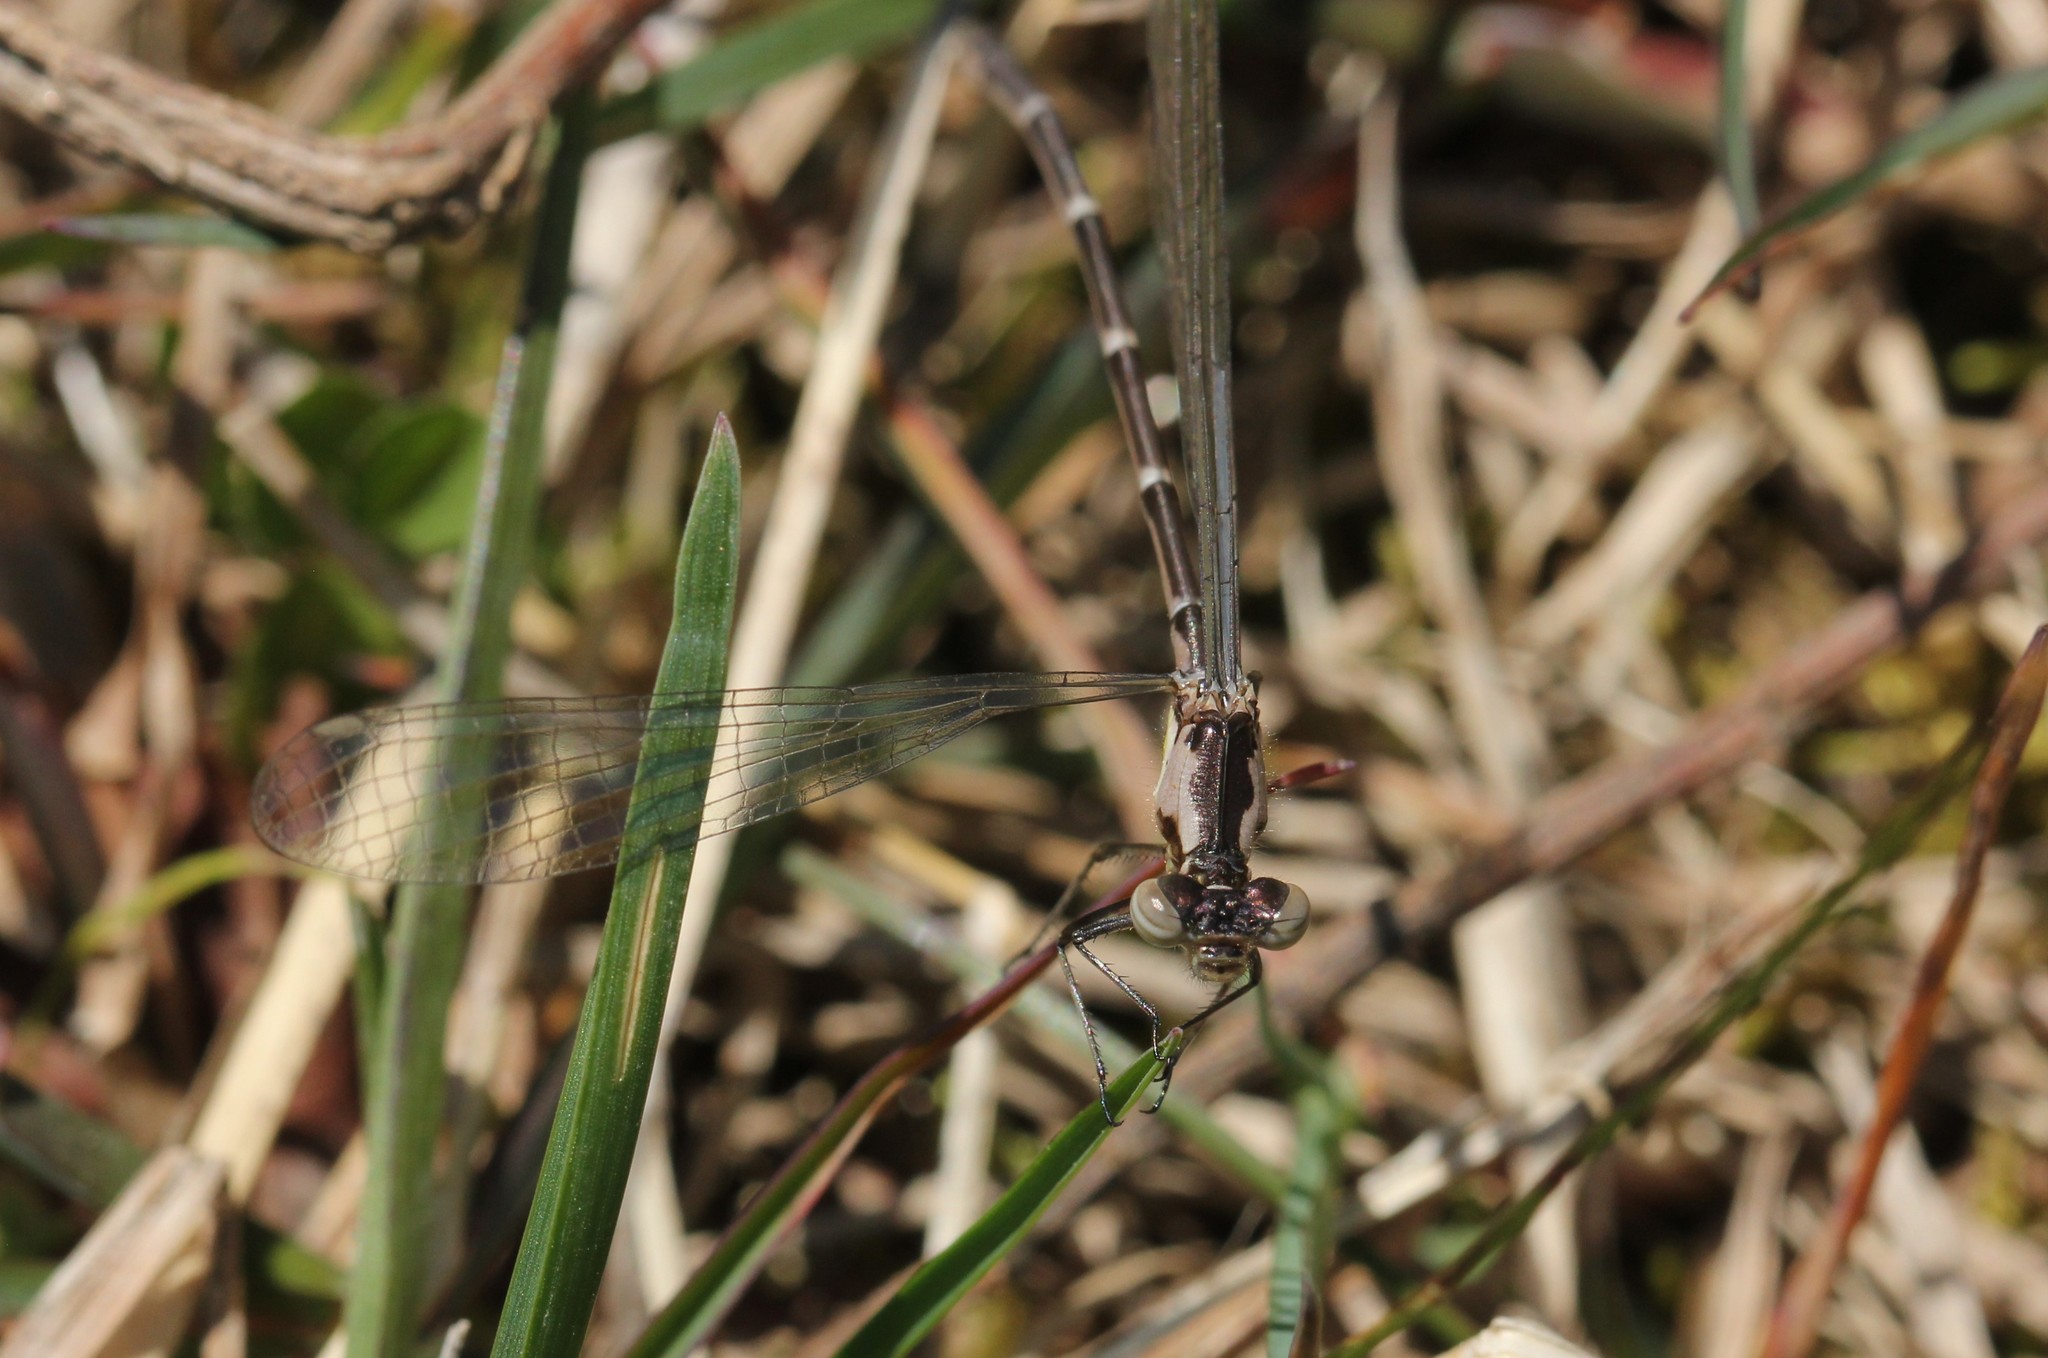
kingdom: Animalia
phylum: Arthropoda
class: Insecta
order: Odonata
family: Coenagrionidae
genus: Chromagrion
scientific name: Chromagrion conditum
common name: Aurora damsel
